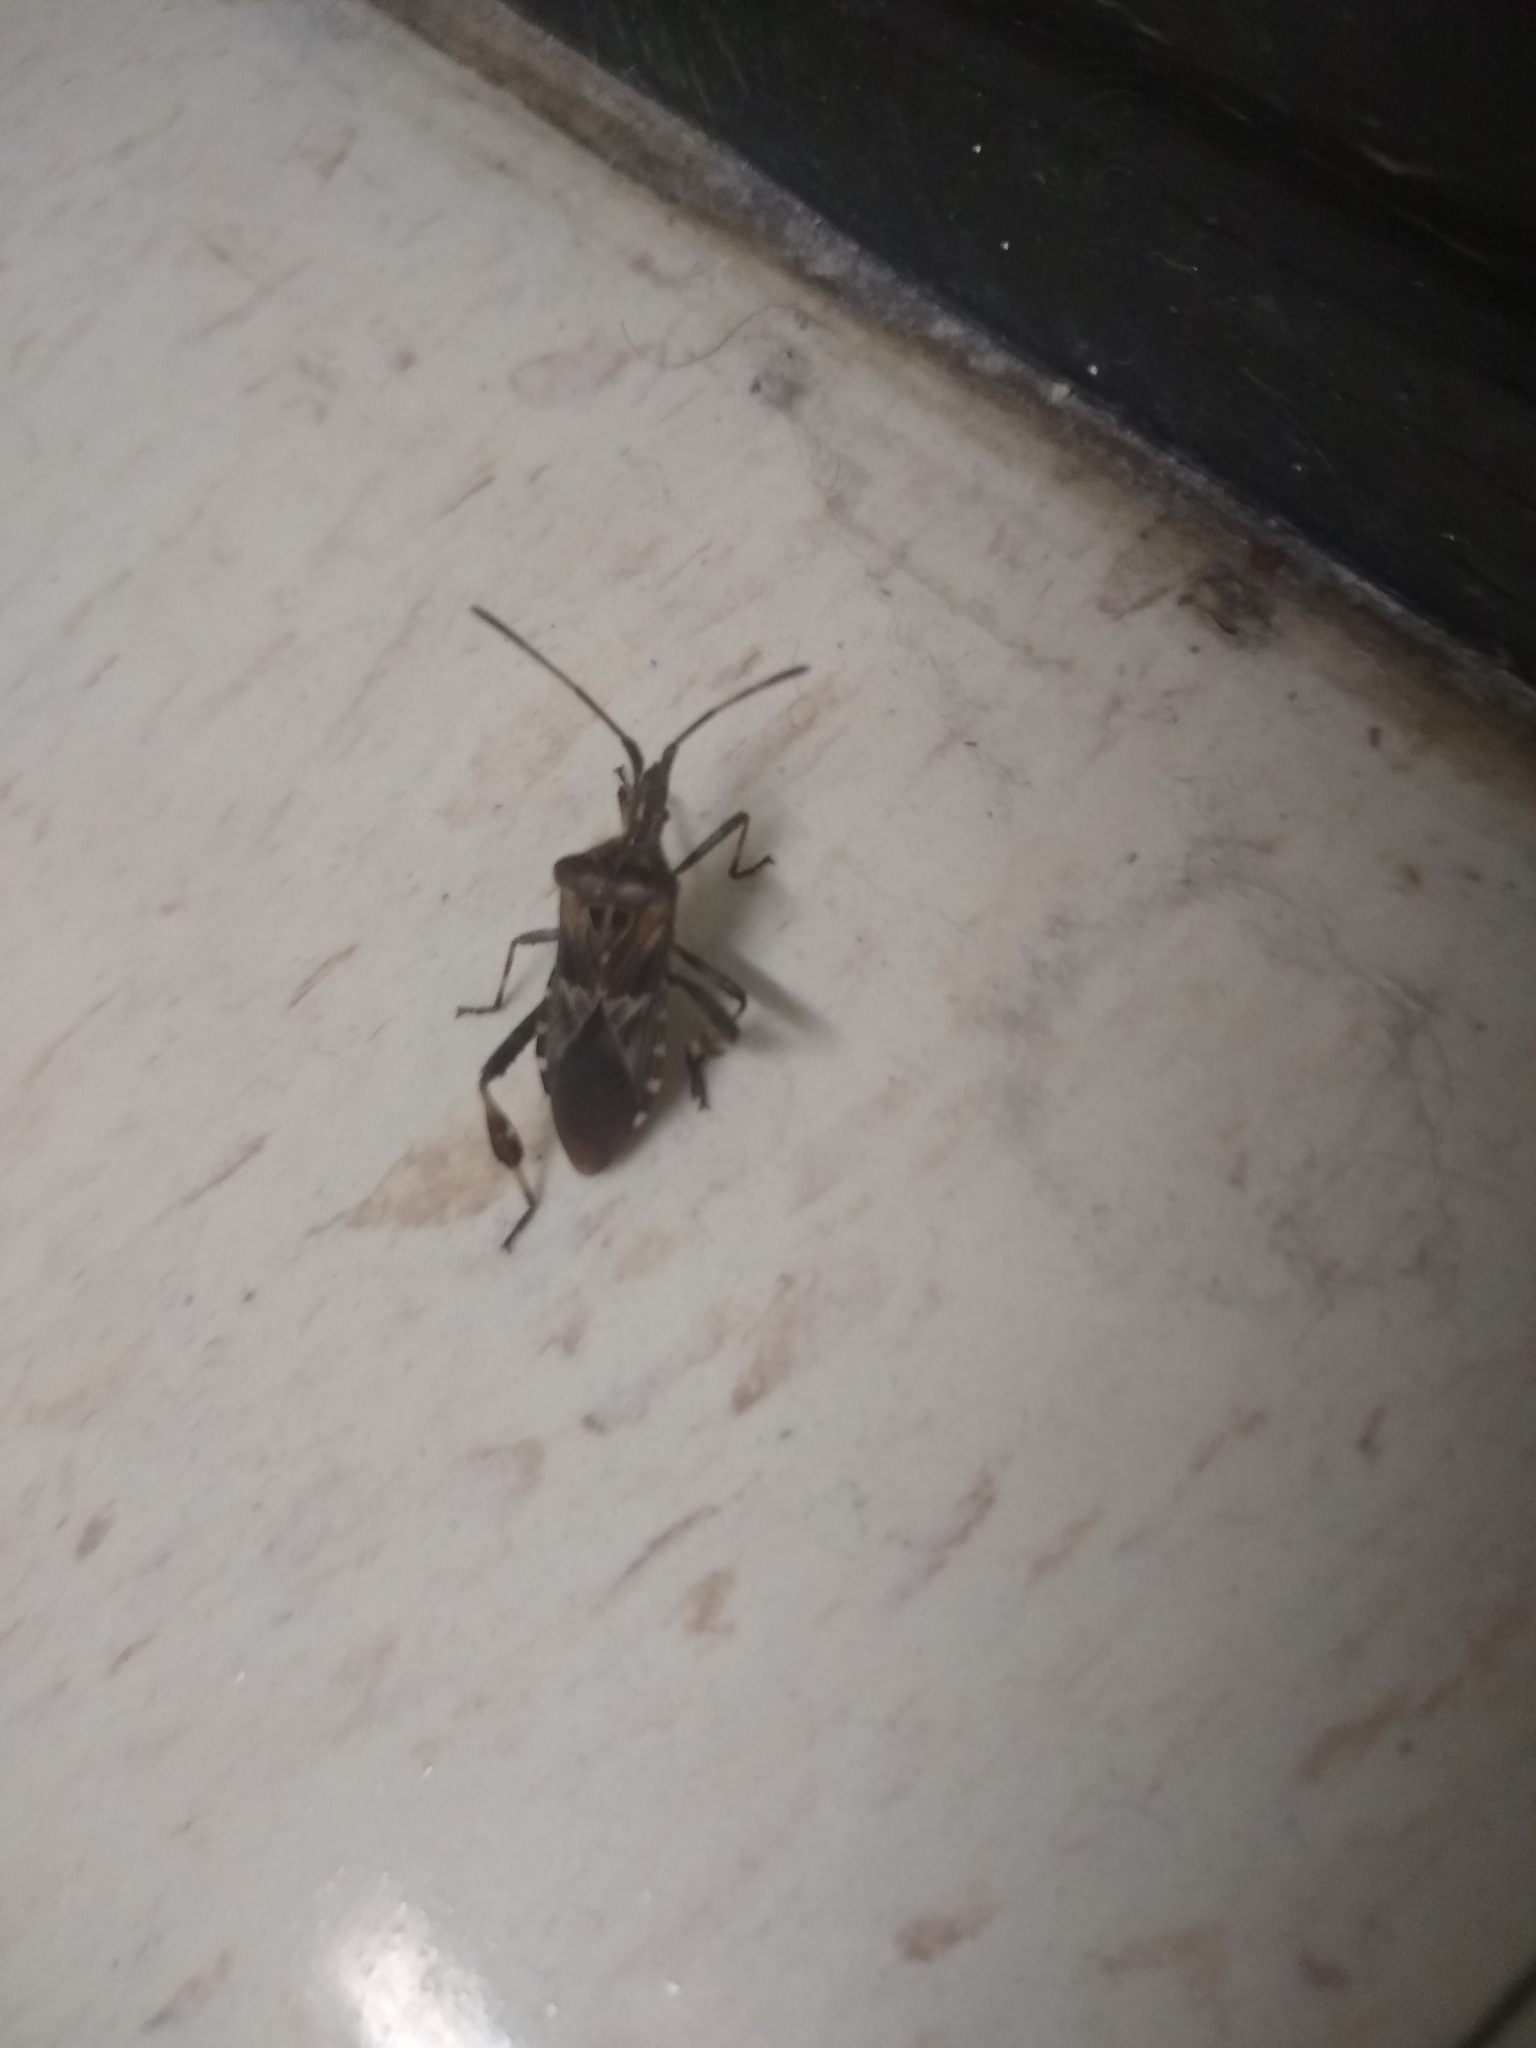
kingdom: Animalia
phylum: Arthropoda
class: Insecta
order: Hemiptera
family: Coreidae
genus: Leptoglossus
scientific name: Leptoglossus occidentalis
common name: Western conifer-seed bug
